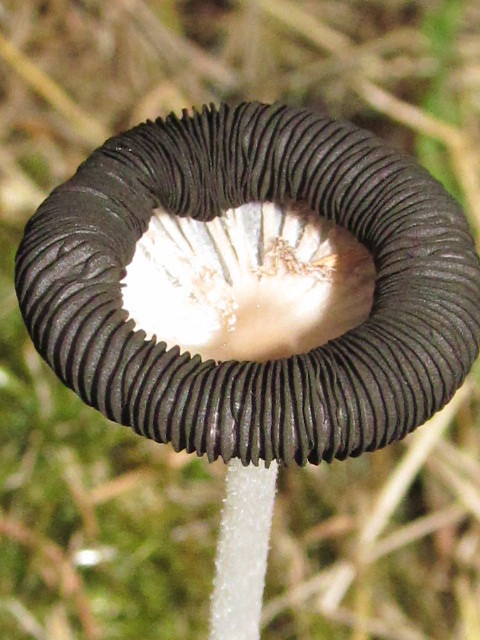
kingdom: Fungi
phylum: Basidiomycota
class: Agaricomycetes
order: Agaricales
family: Psathyrellaceae
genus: Coprinopsis
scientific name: Coprinopsis lagopus
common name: Hare'sfoot inkcap
